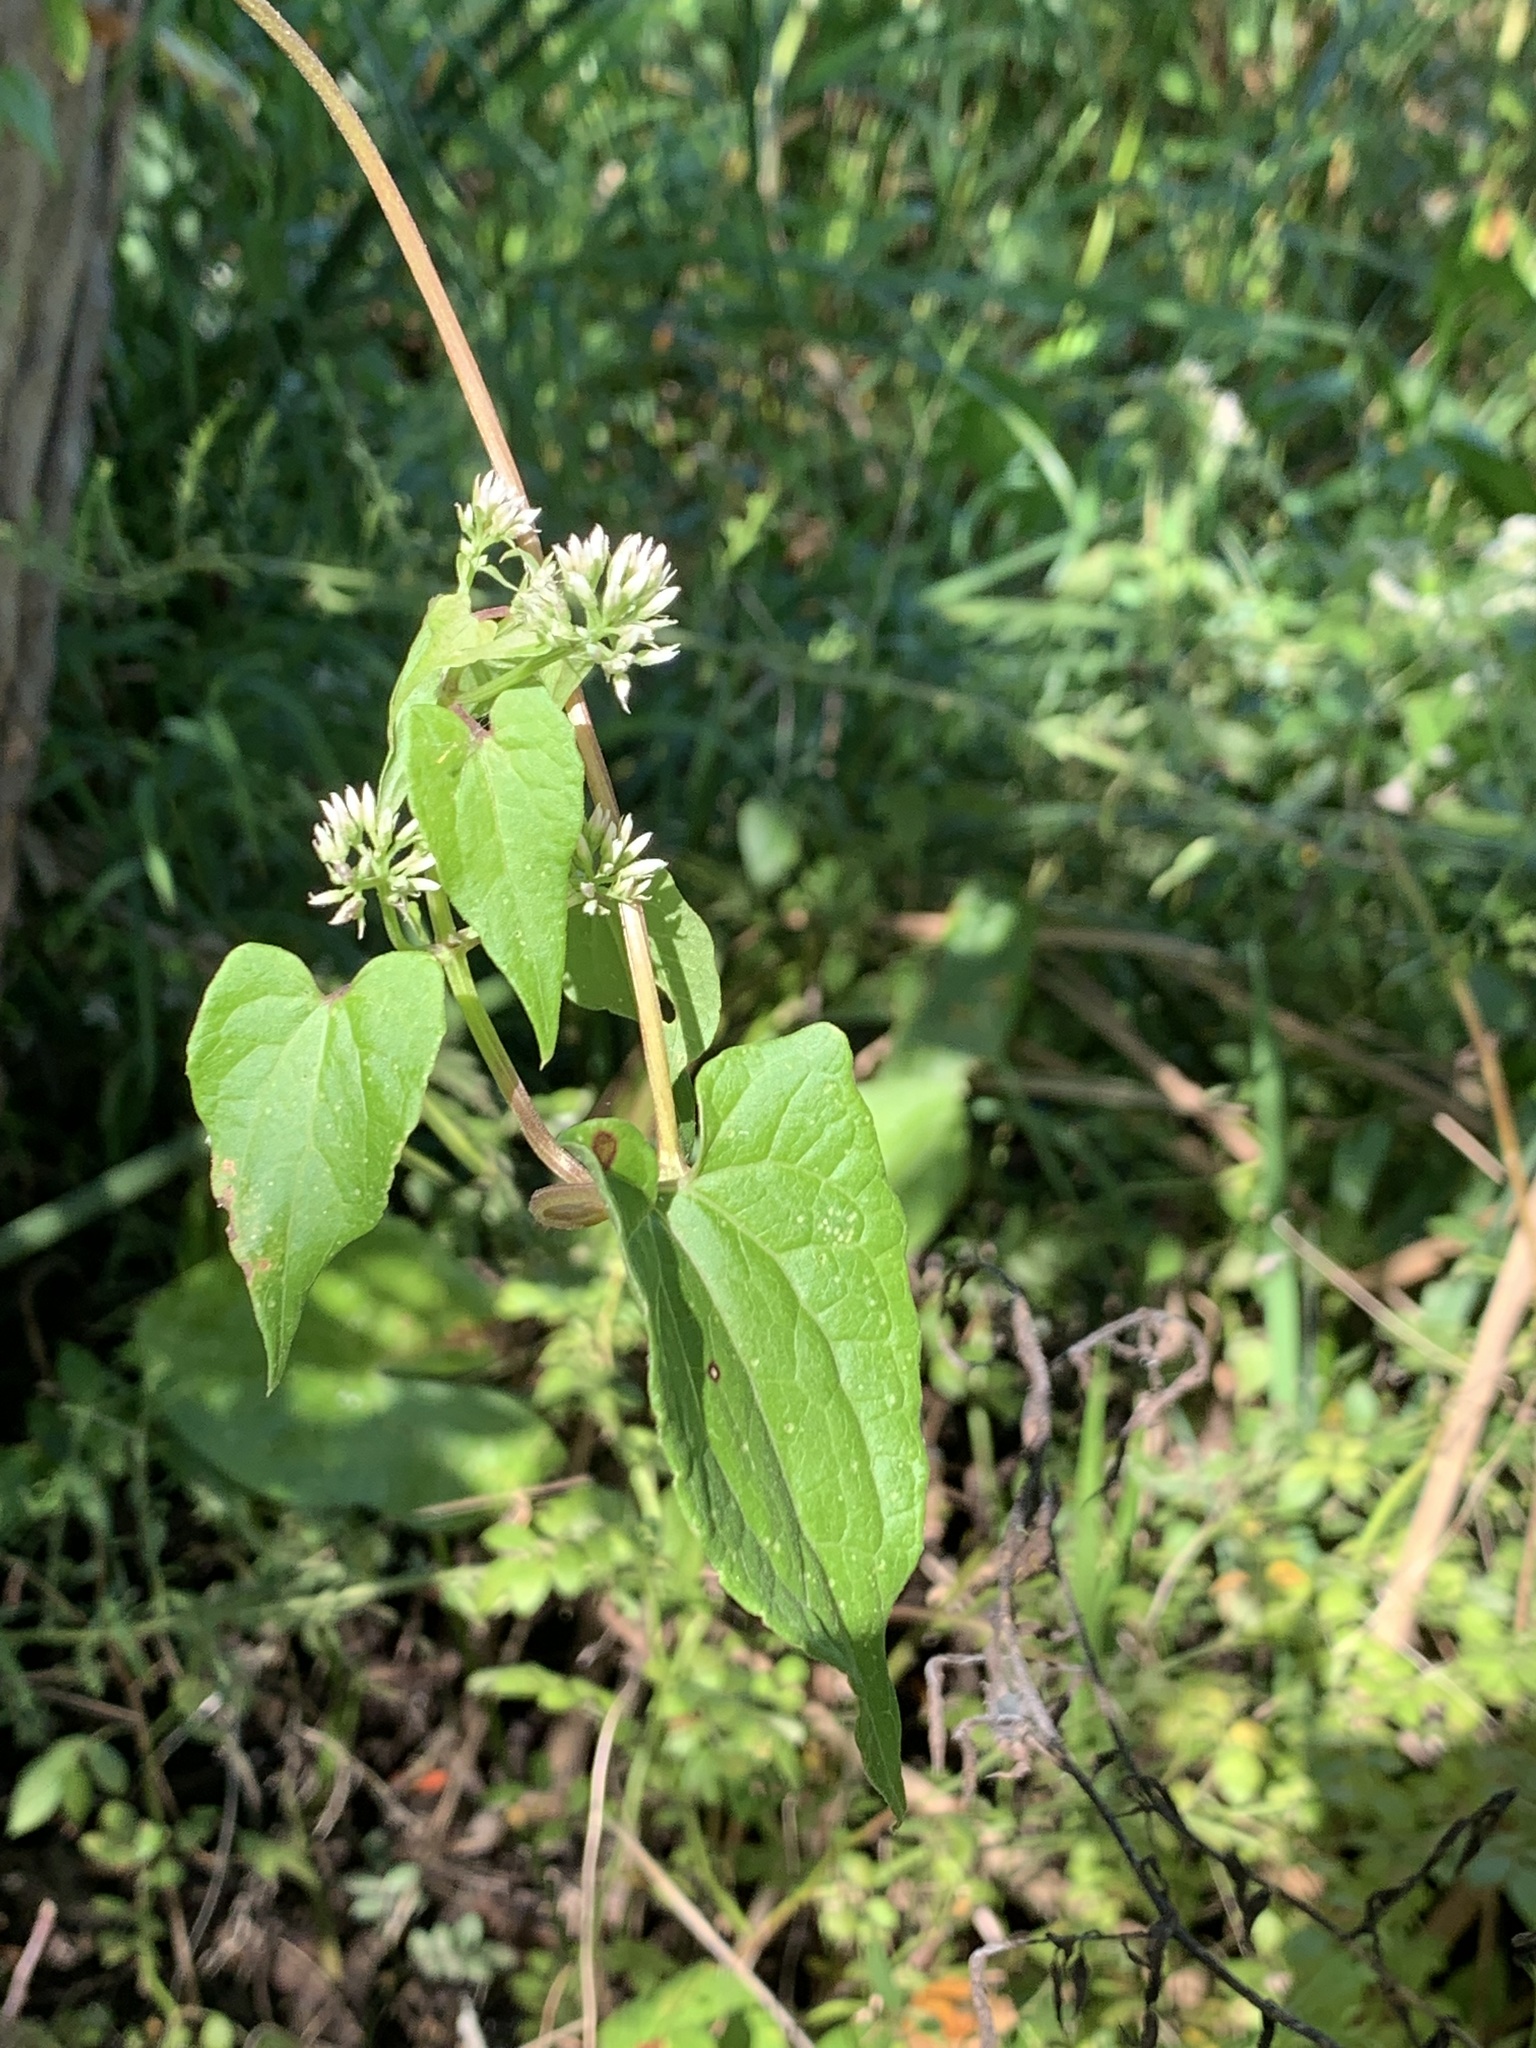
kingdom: Plantae
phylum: Tracheophyta
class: Magnoliopsida
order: Asterales
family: Asteraceae
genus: Mikania
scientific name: Mikania scandens
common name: Climbing hempvine
